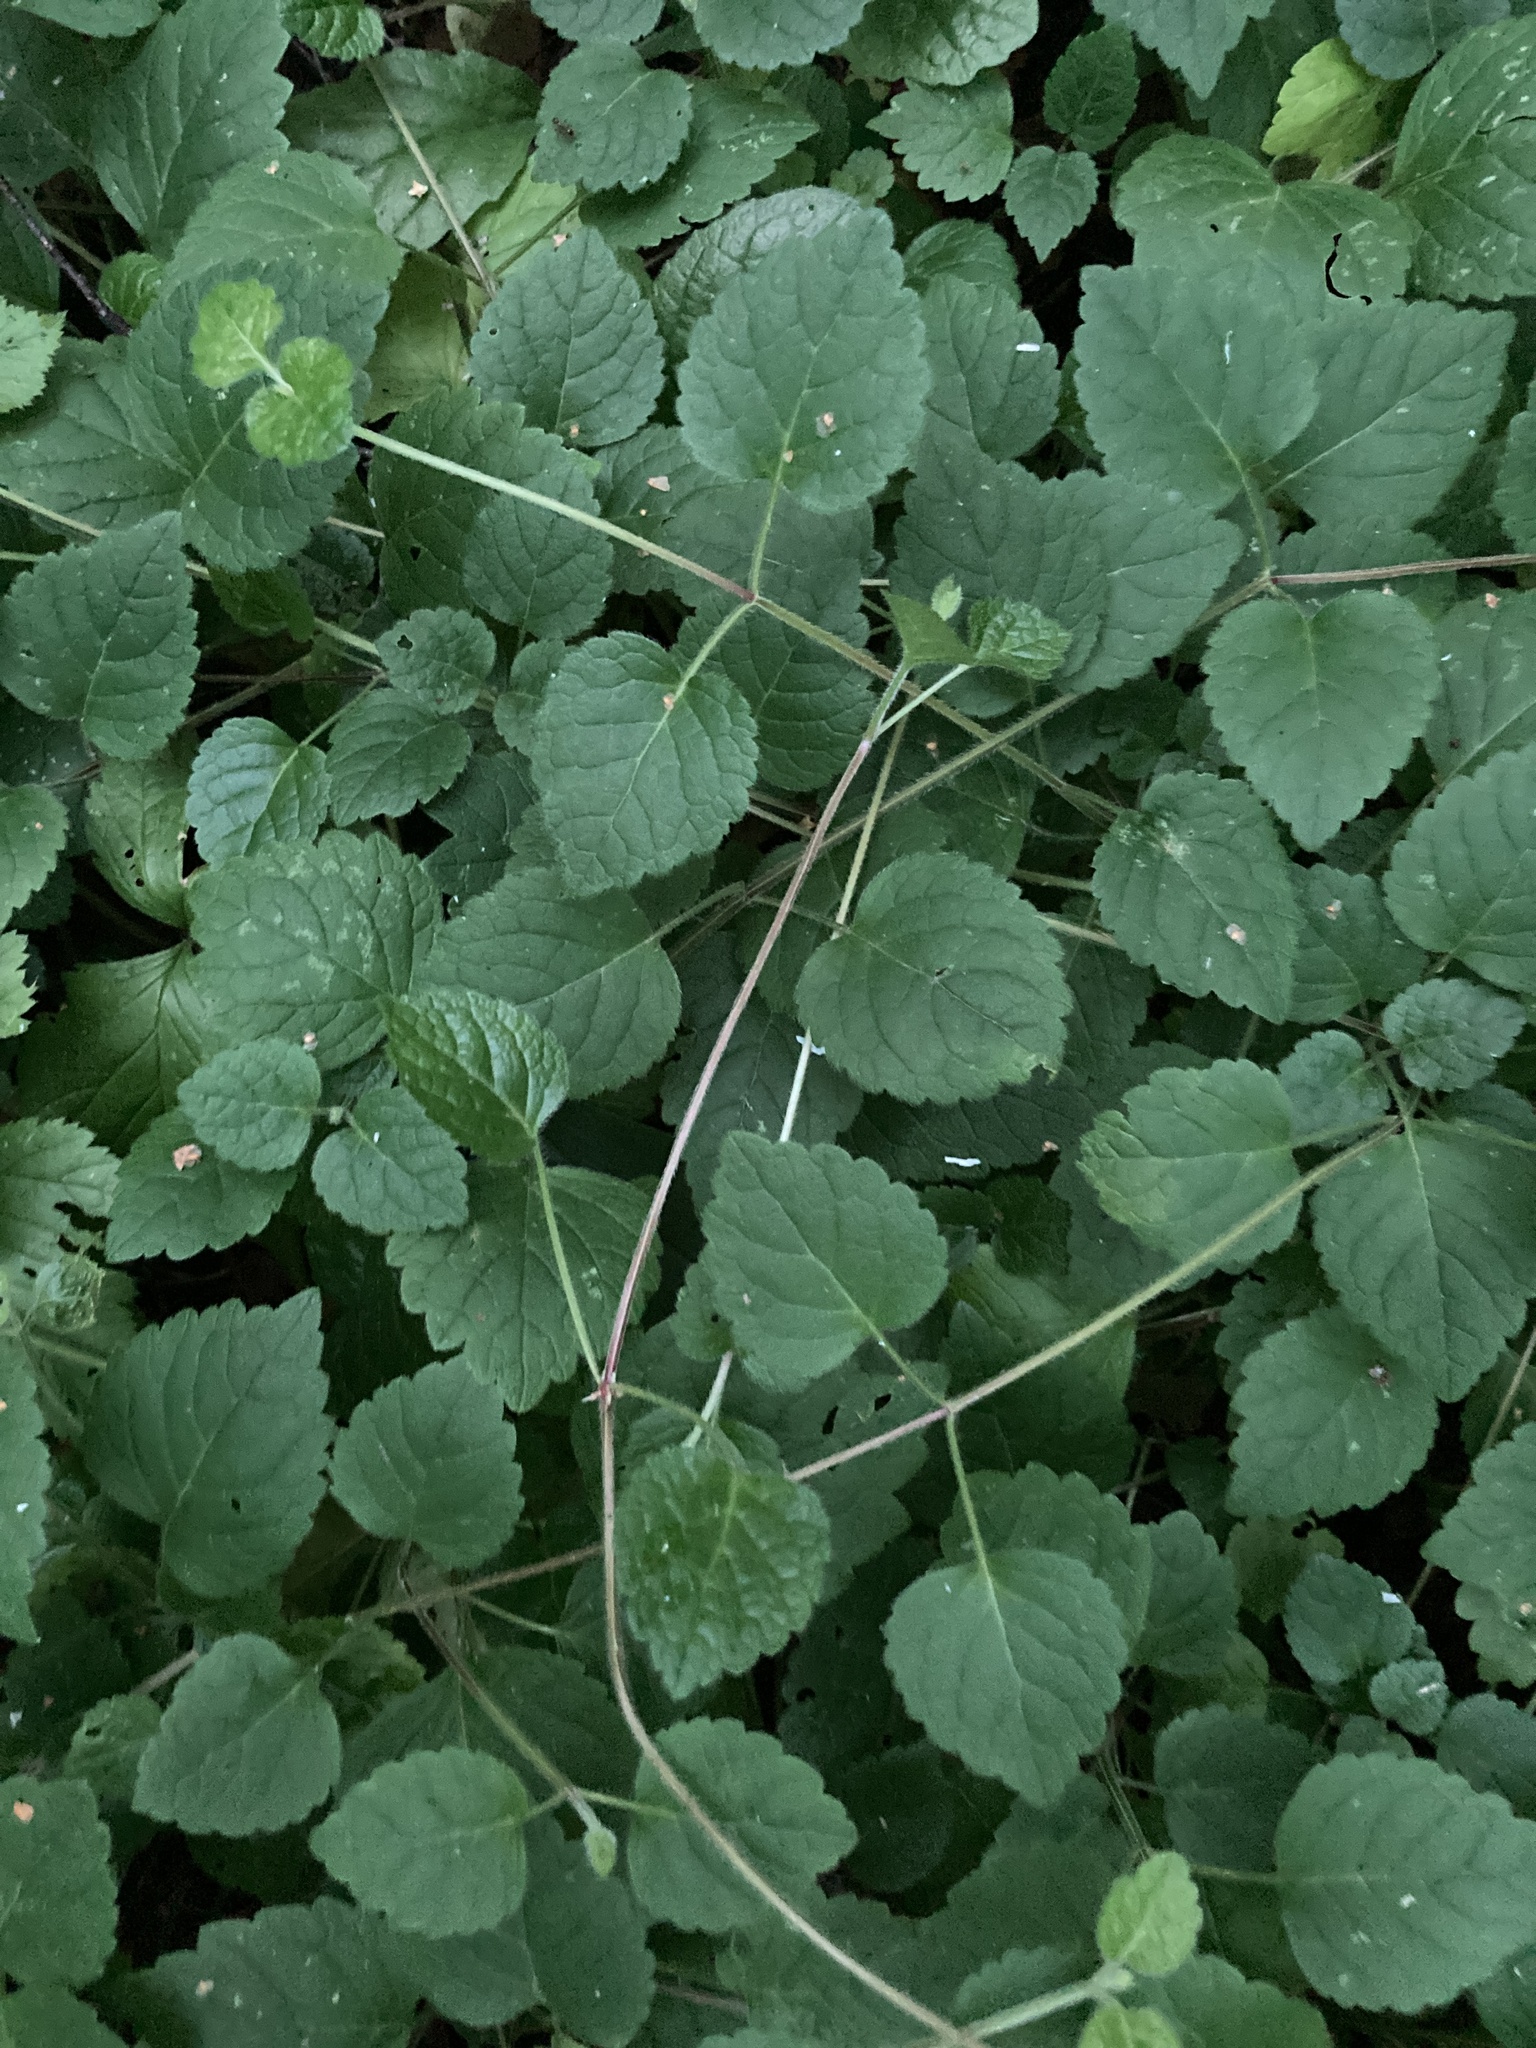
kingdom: Plantae
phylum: Tracheophyta
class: Magnoliopsida
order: Lamiales
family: Lamiaceae
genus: Lamium
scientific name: Lamium galeobdolon
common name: Yellow archangel
